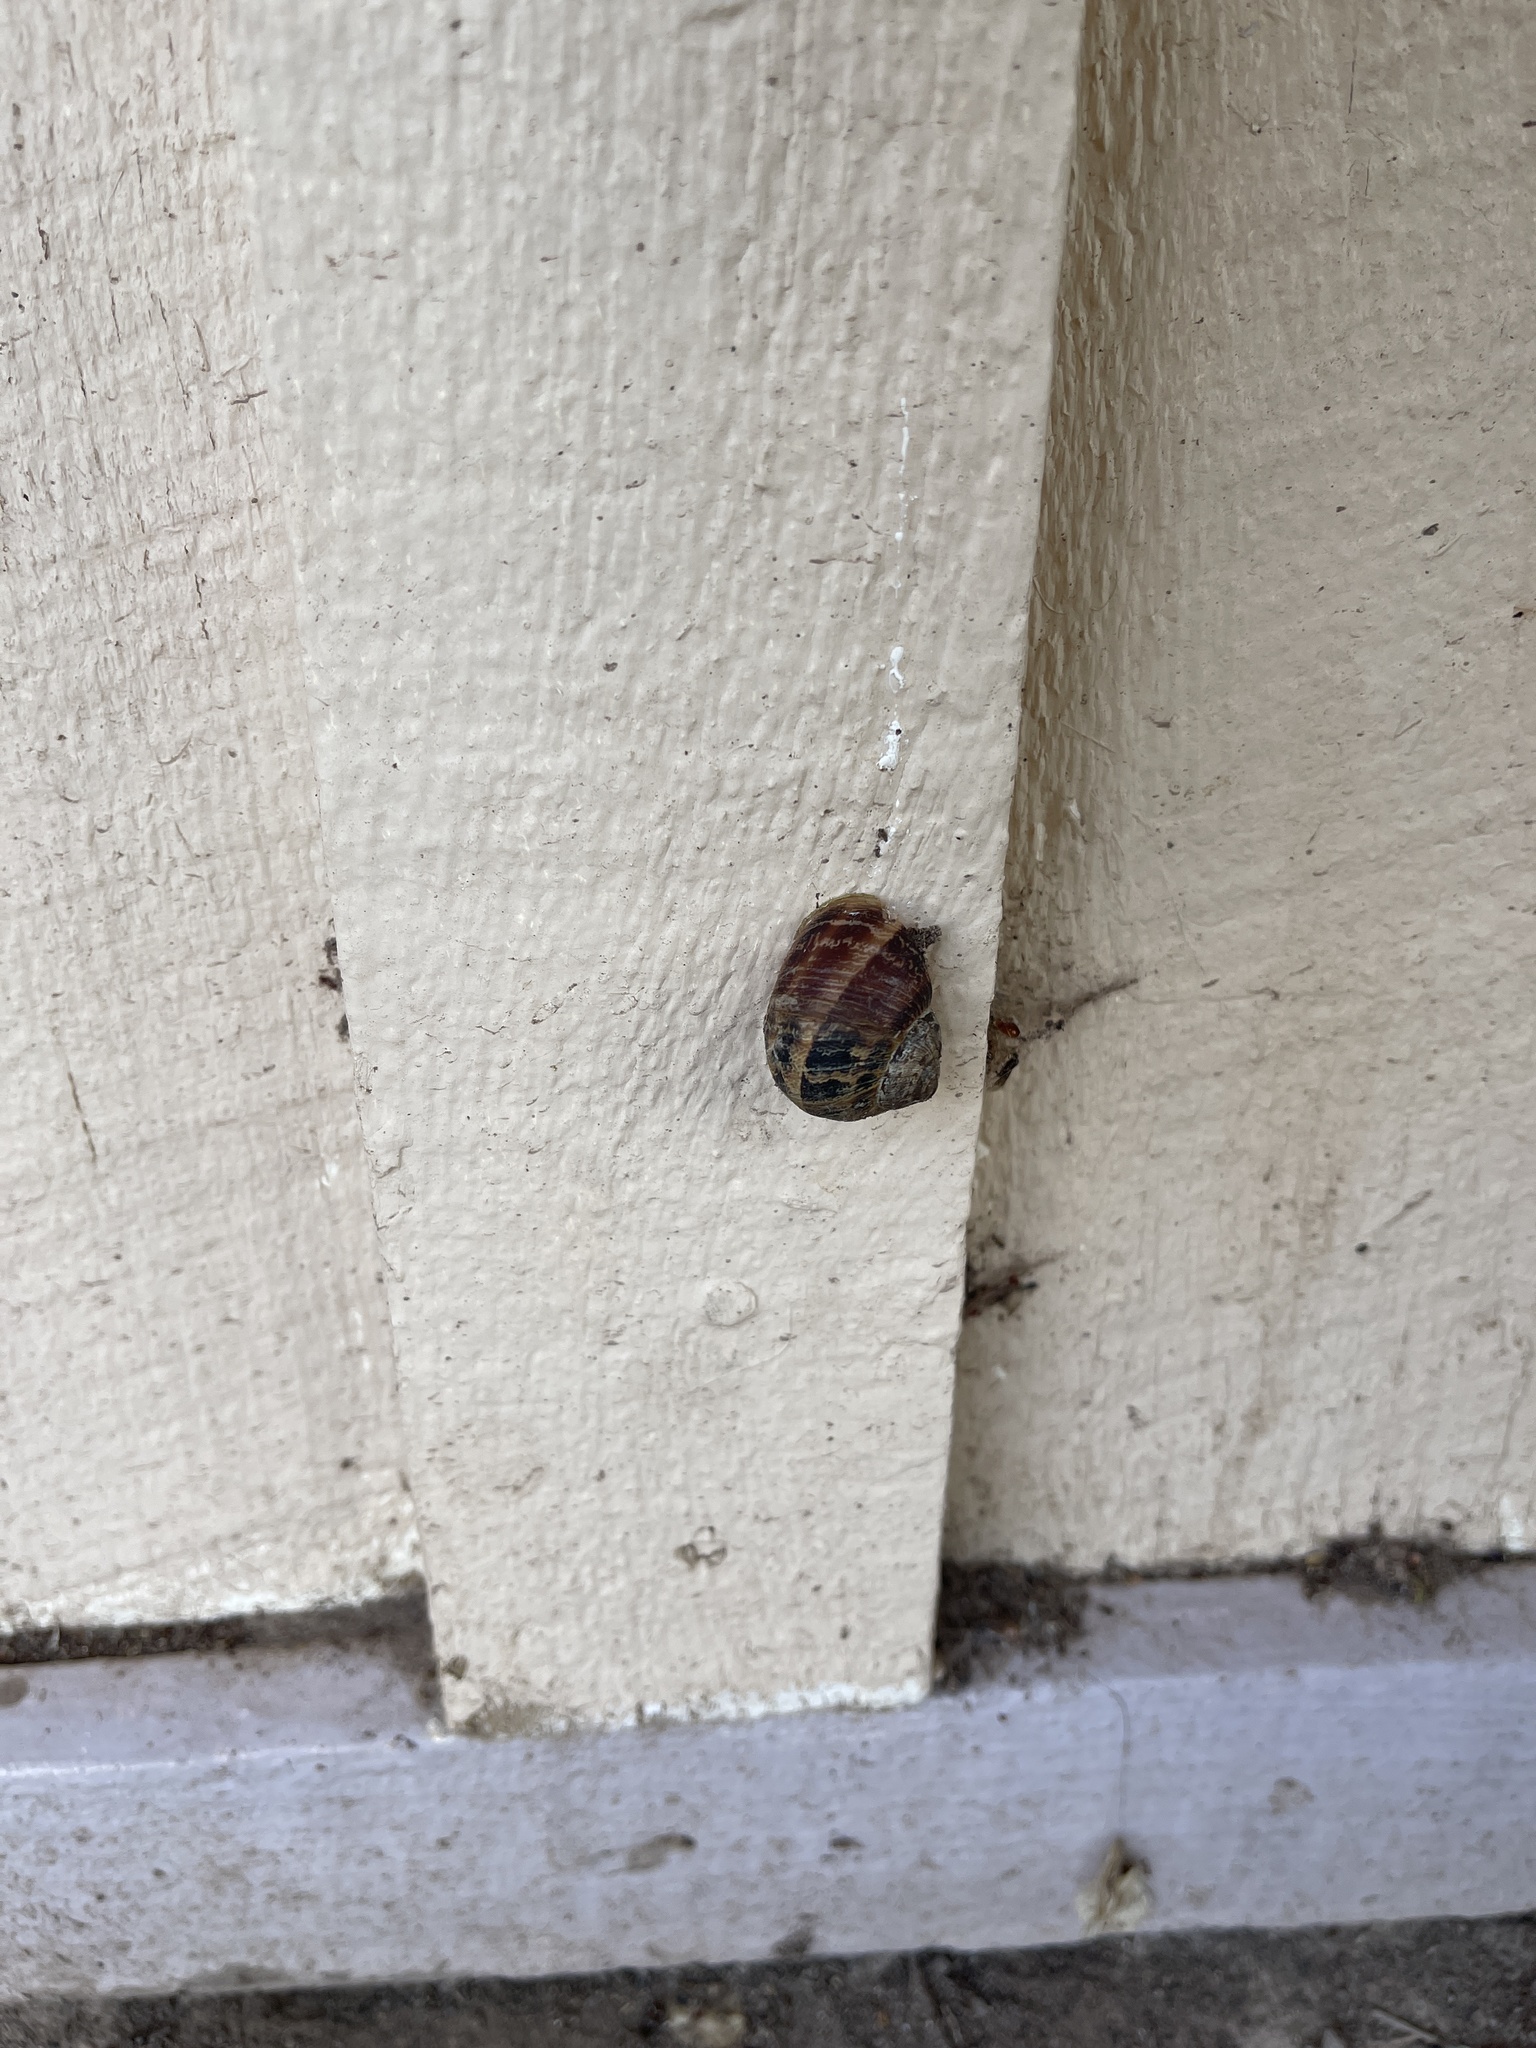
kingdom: Animalia
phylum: Mollusca
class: Gastropoda
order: Stylommatophora
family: Helicidae
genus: Cornu
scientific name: Cornu aspersum
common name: Brown garden snail
